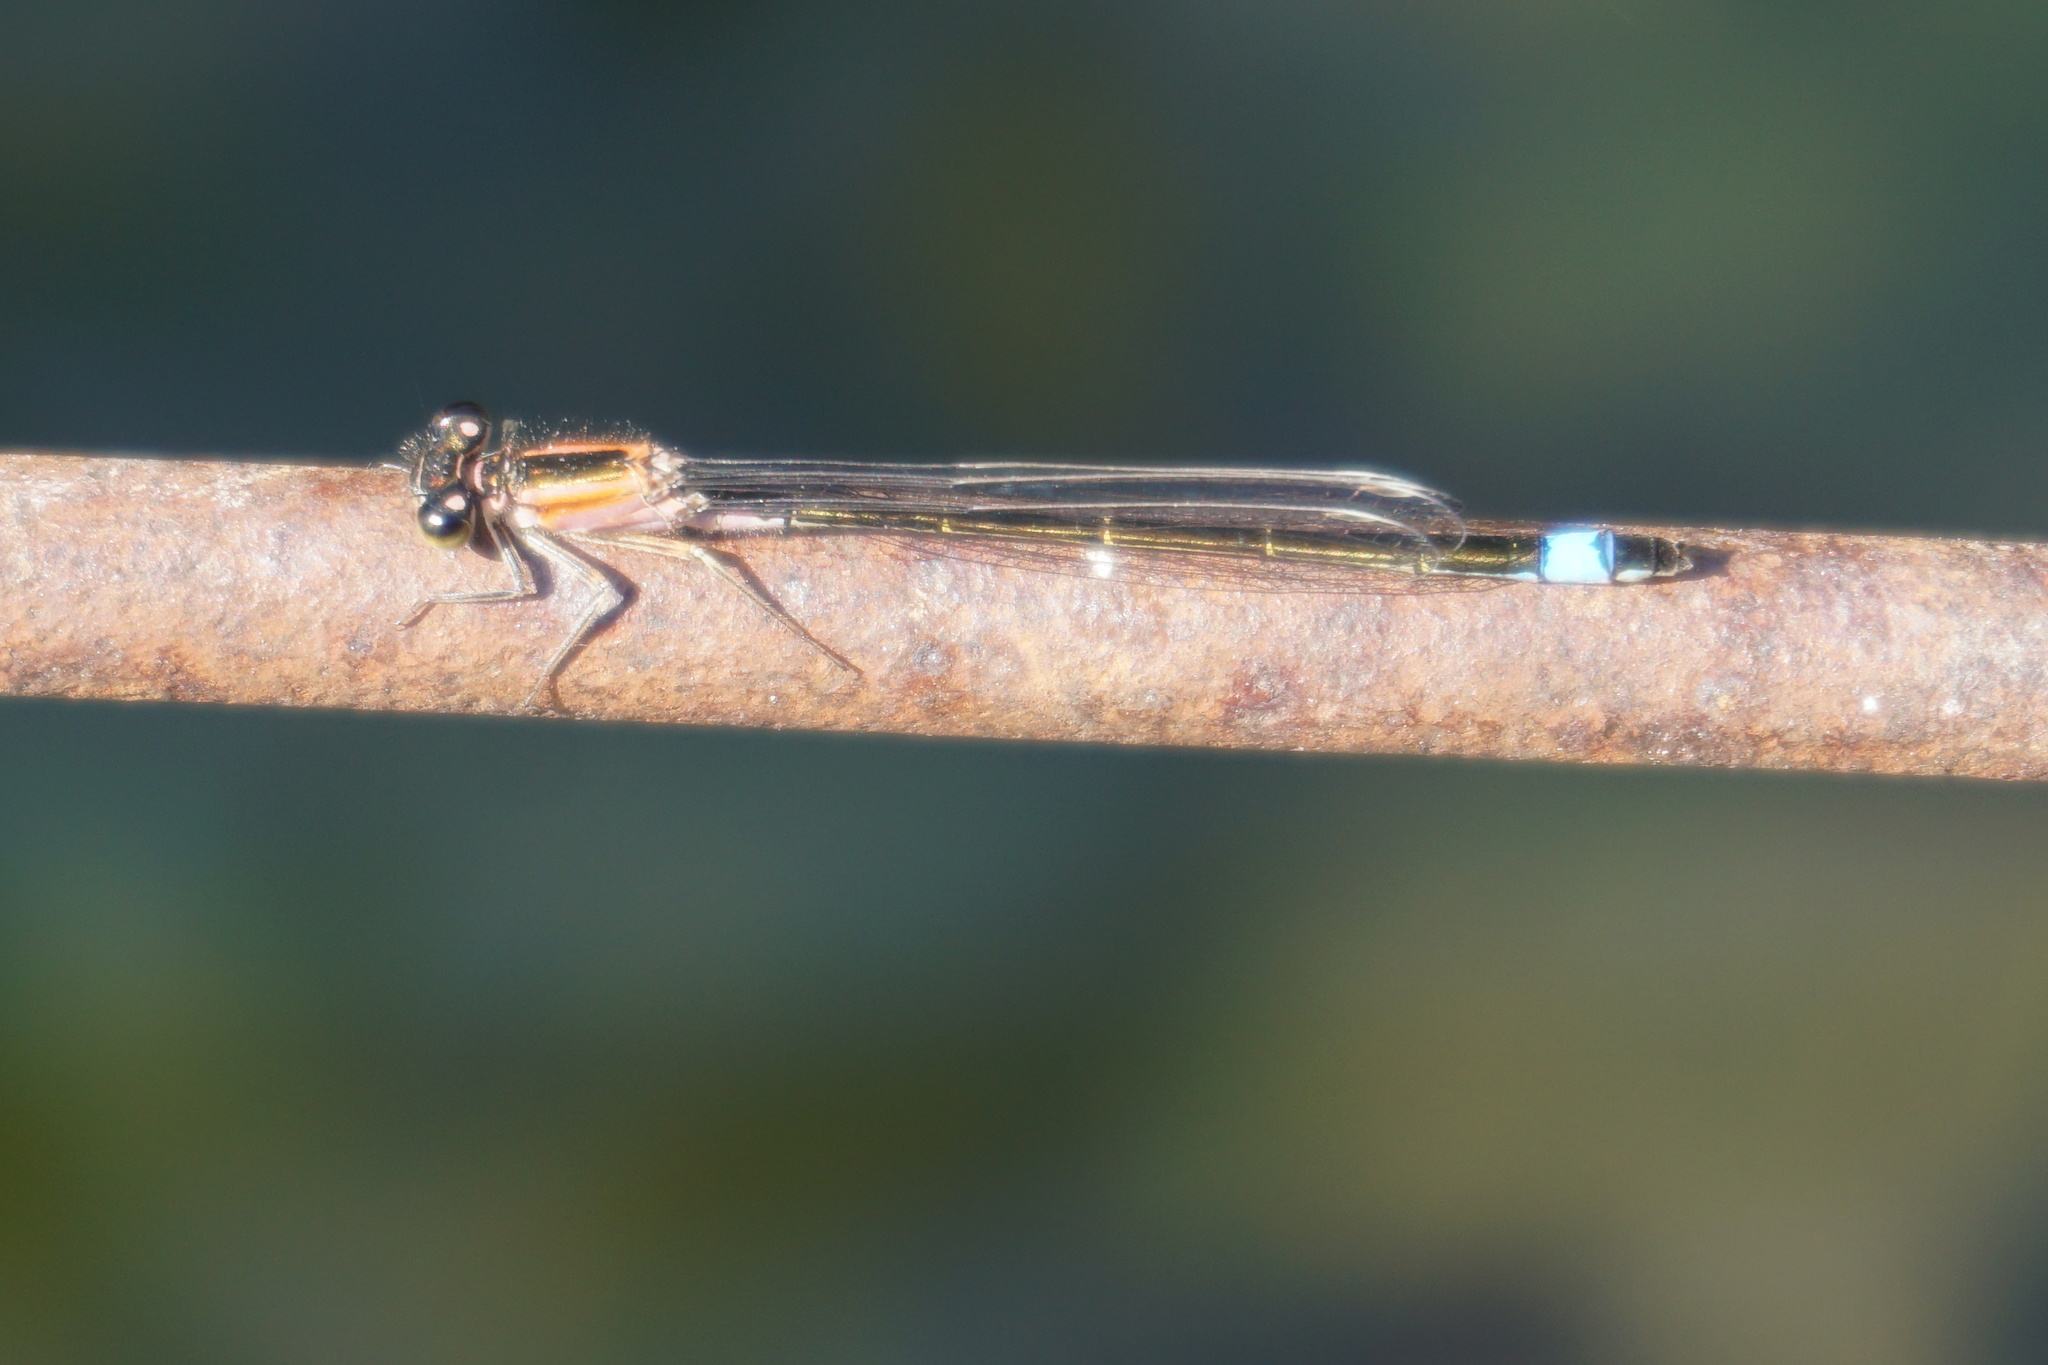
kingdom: Animalia
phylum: Arthropoda
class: Insecta
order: Odonata
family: Coenagrionidae
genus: Ischnura
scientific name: Ischnura elegans
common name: Blue-tailed damselfly
